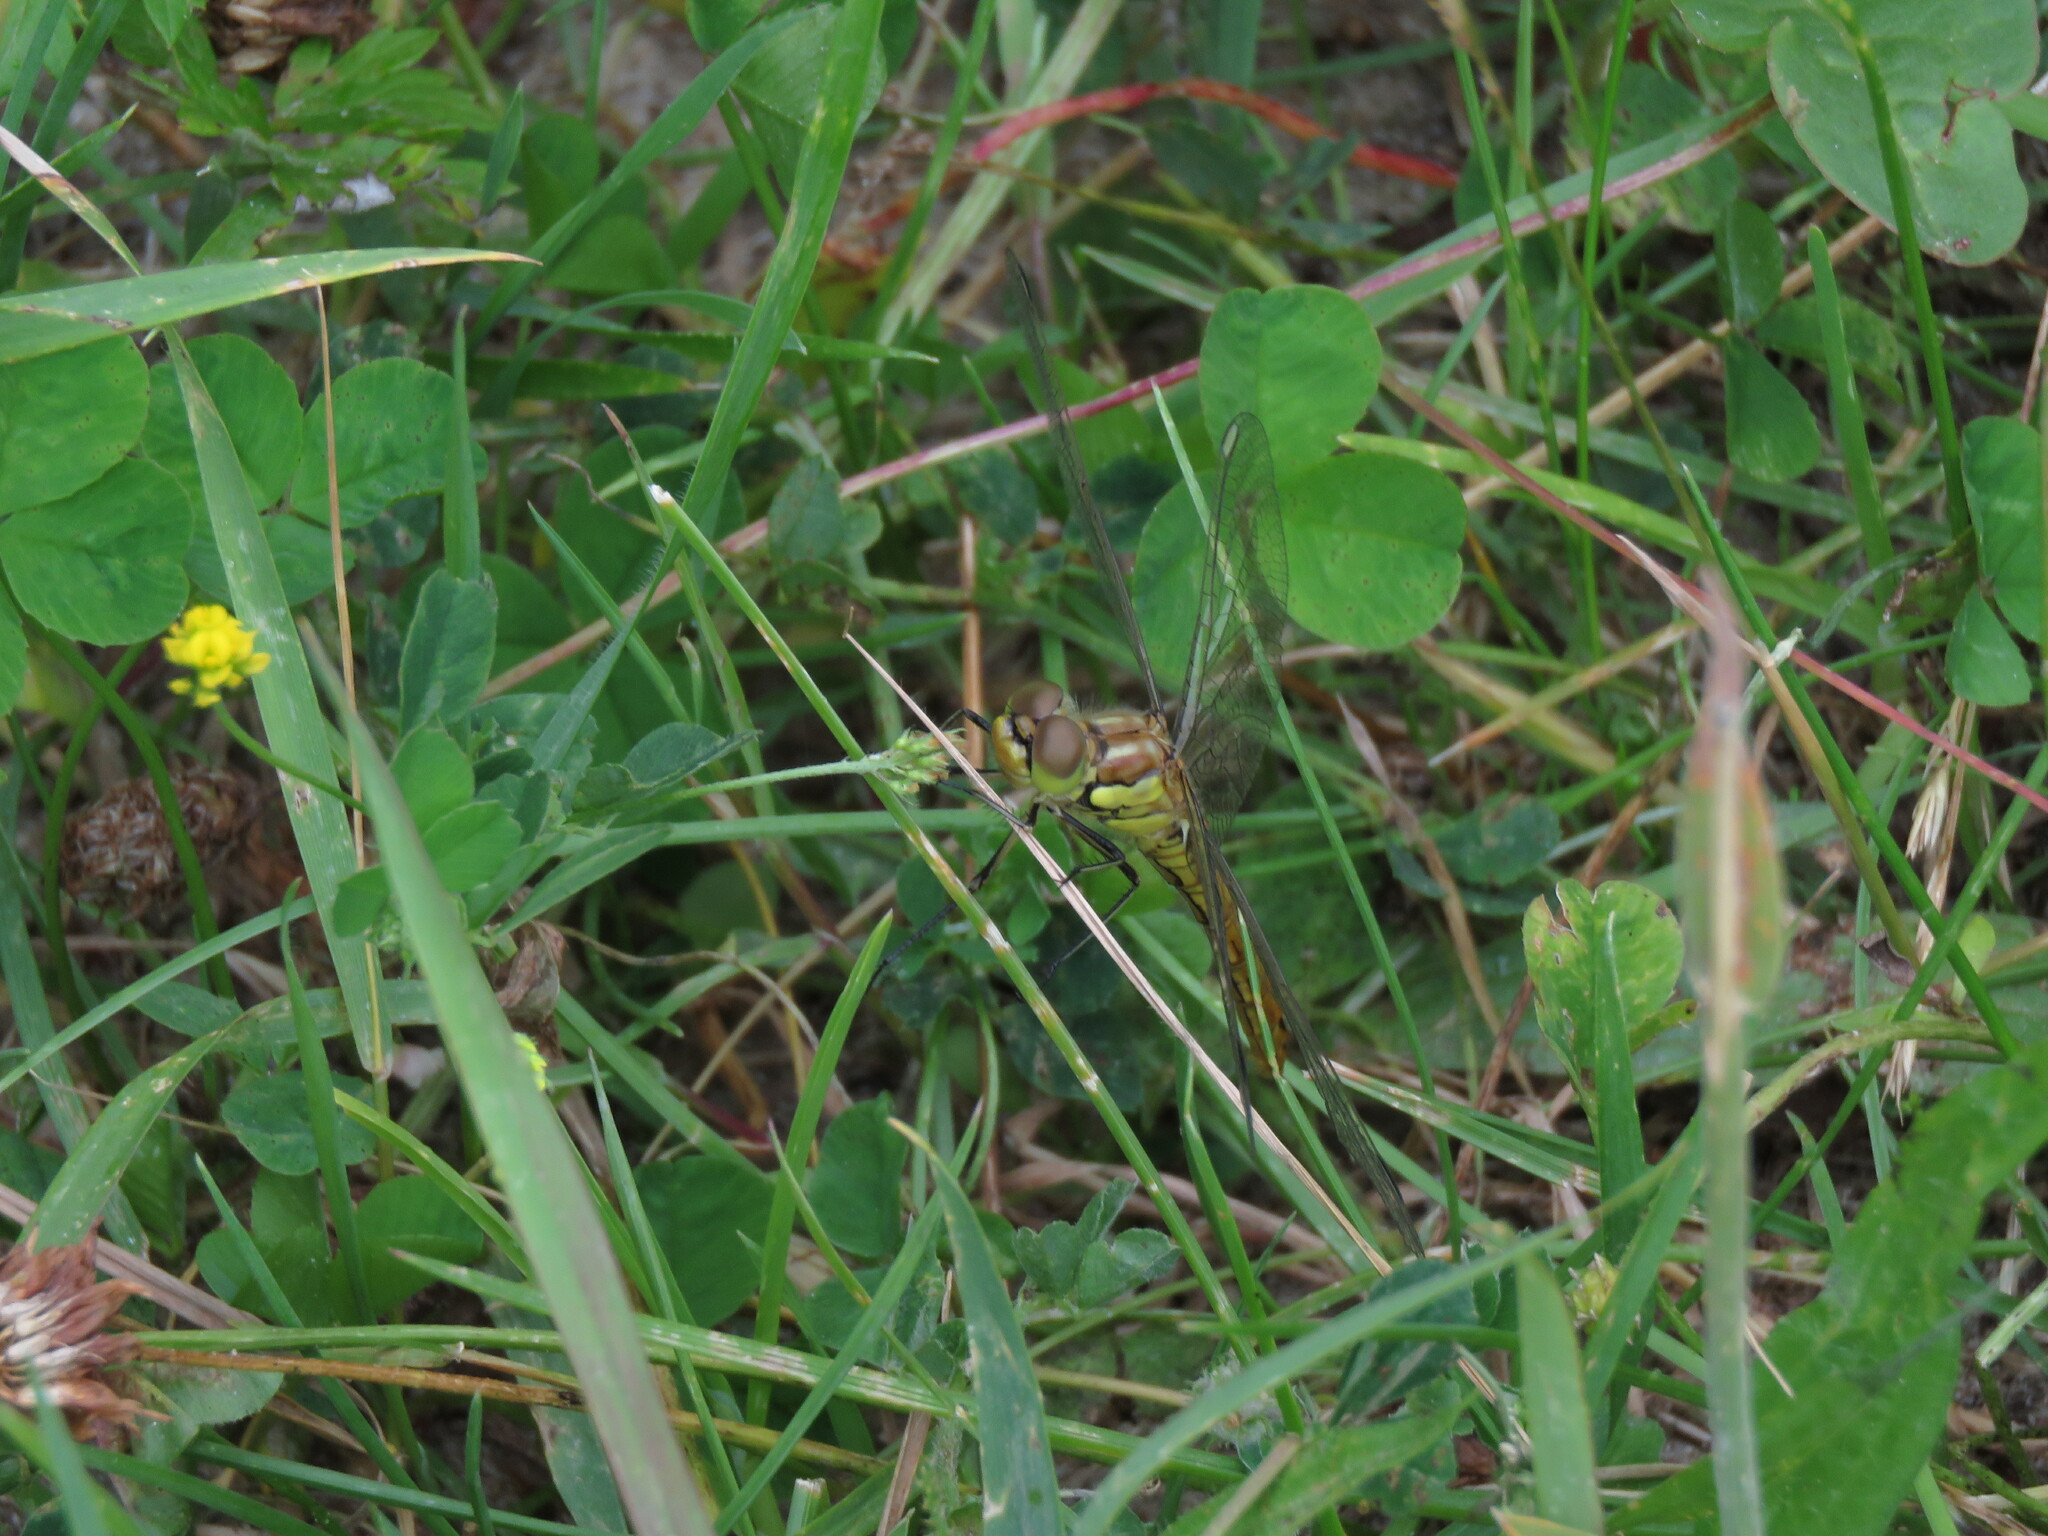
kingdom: Animalia
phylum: Arthropoda
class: Insecta
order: Odonata
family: Libellulidae
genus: Sympetrum
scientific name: Sympetrum vulgatum
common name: Vagrant darter
